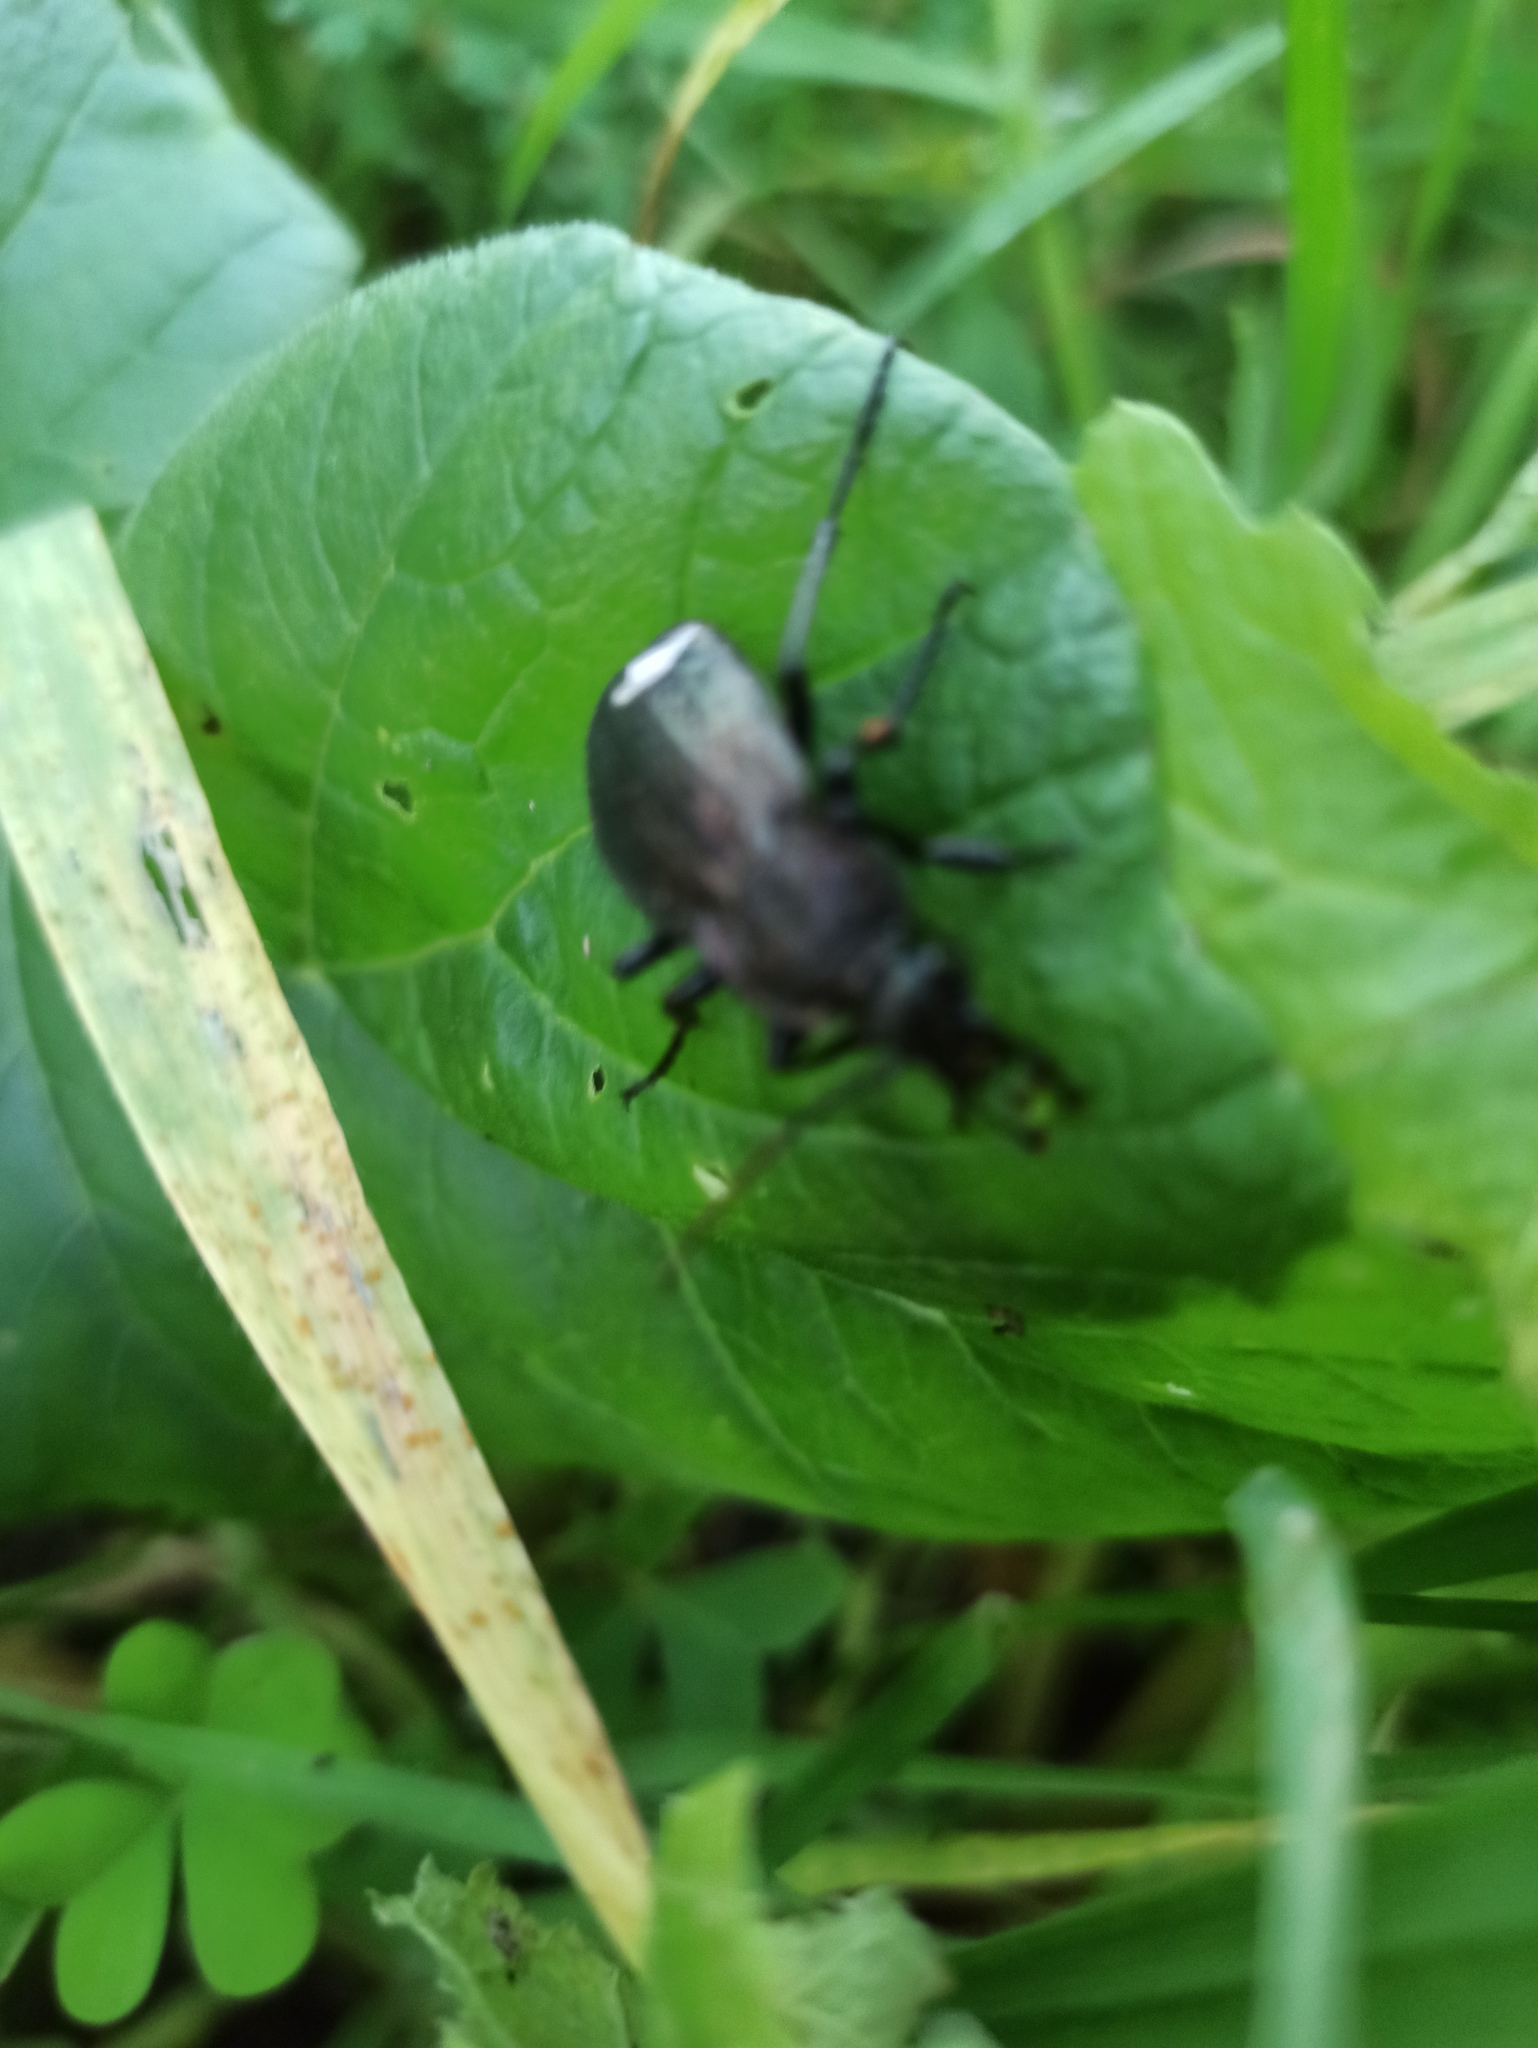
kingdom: Animalia
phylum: Arthropoda
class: Insecta
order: Coleoptera
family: Carabidae
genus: Carabus
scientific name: Carabus rugosus
